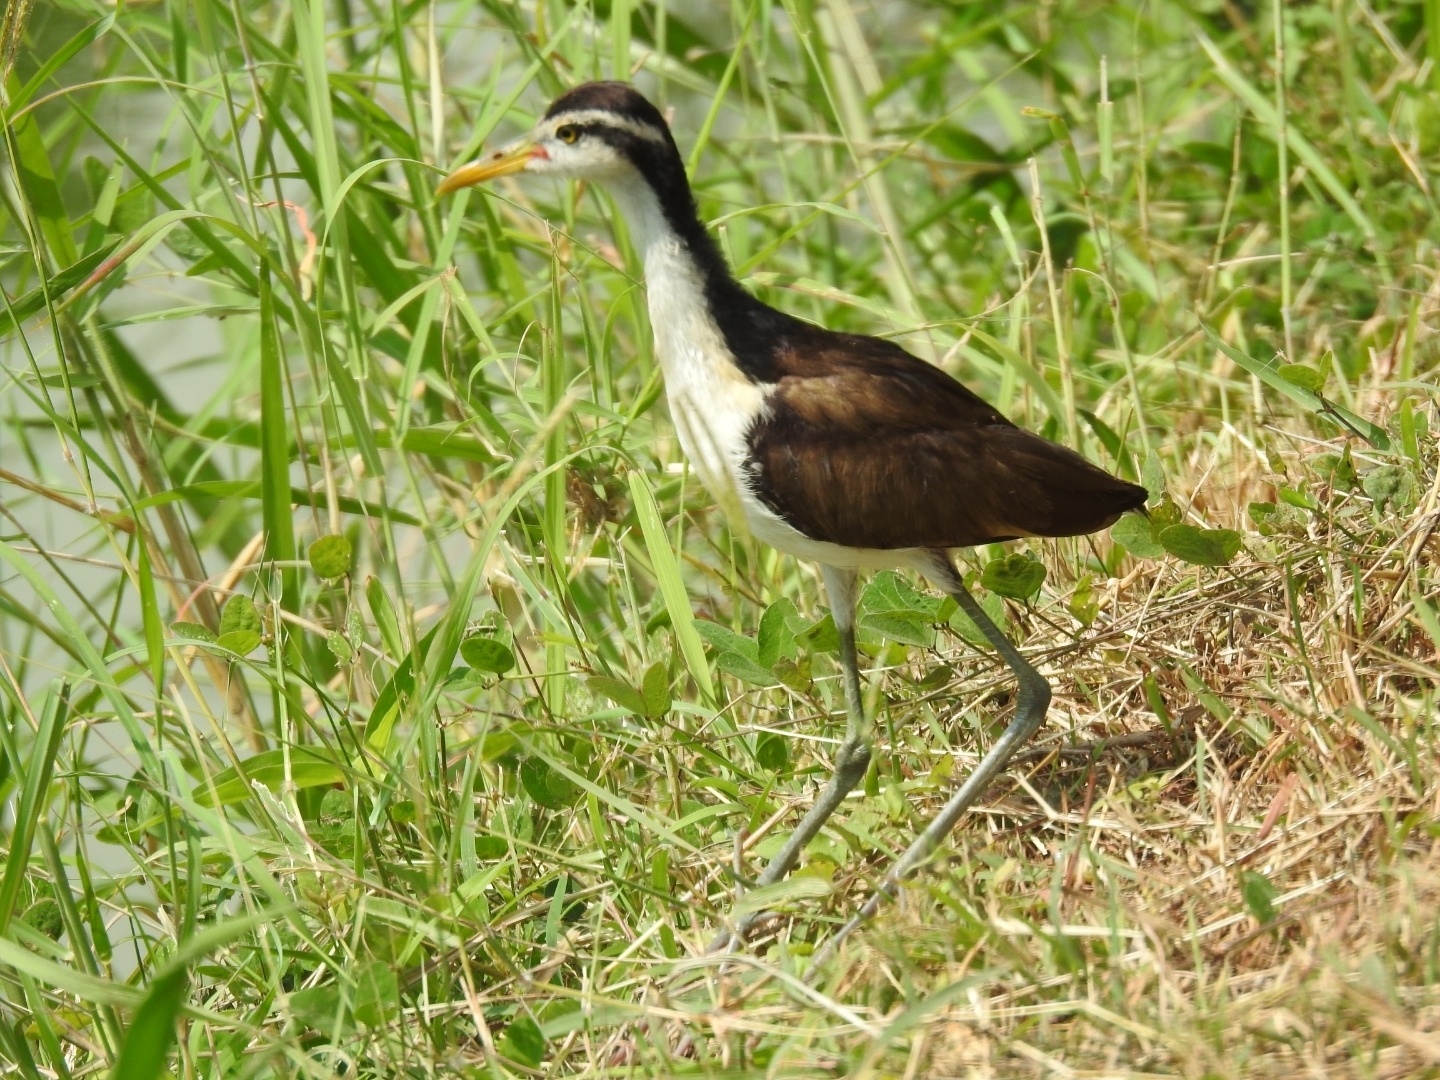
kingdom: Animalia
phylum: Chordata
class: Aves
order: Charadriiformes
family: Jacanidae
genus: Jacana
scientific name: Jacana jacana
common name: Wattled jacana
